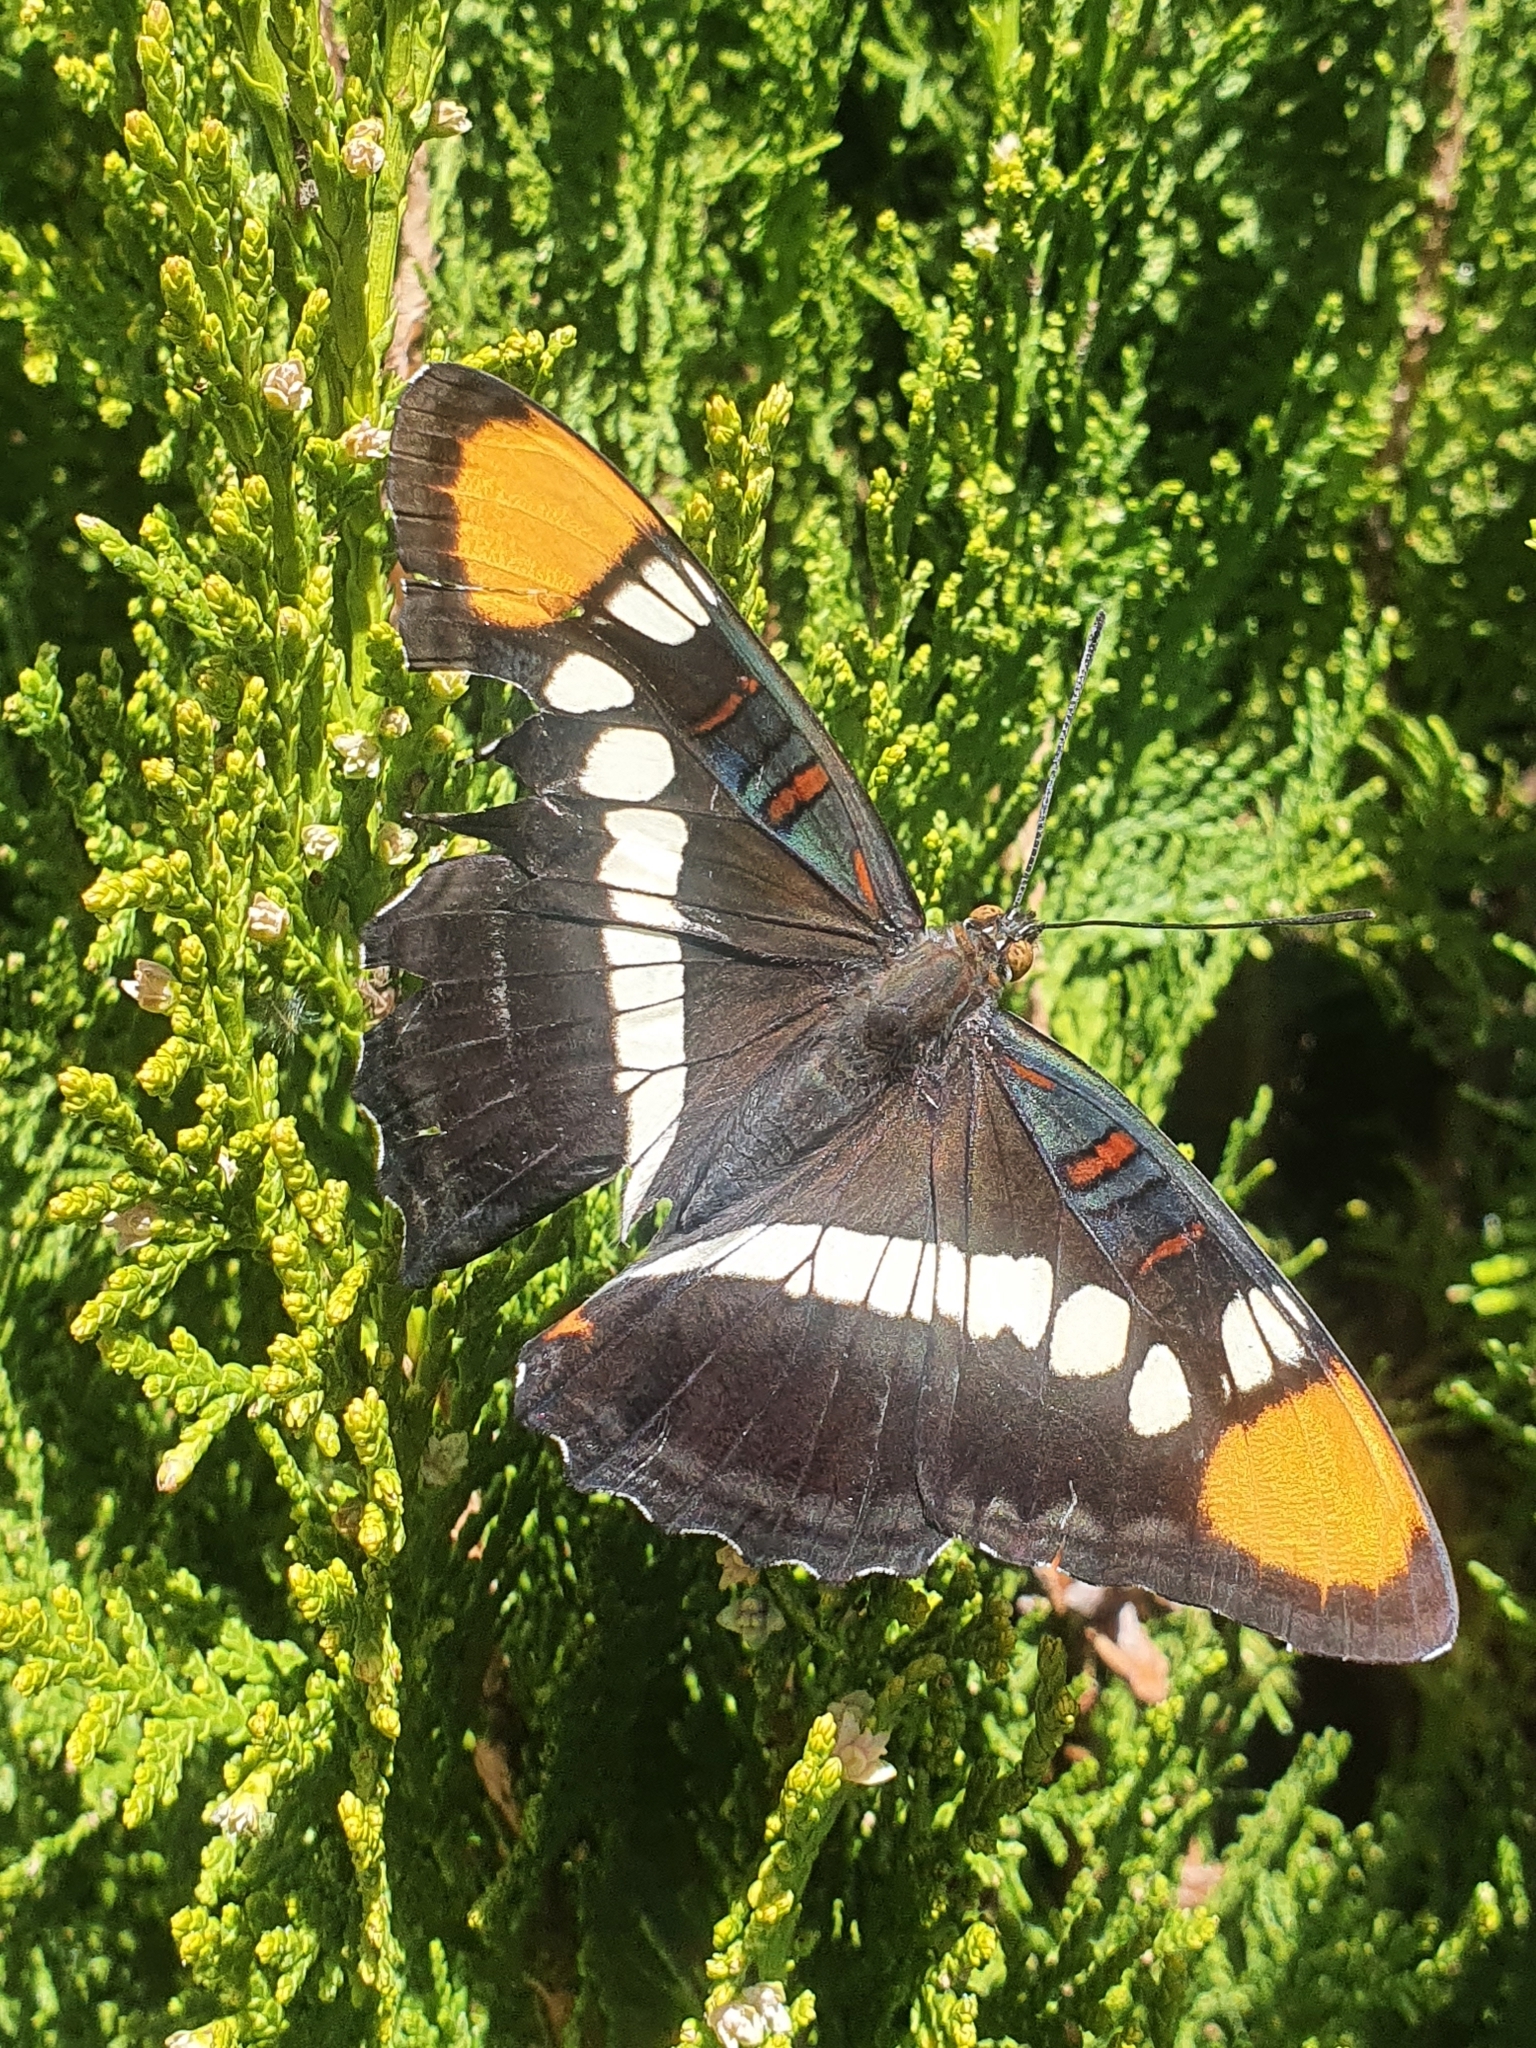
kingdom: Animalia
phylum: Arthropoda
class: Insecta
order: Lepidoptera
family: Nymphalidae
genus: Limenitis
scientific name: Limenitis bredowii
